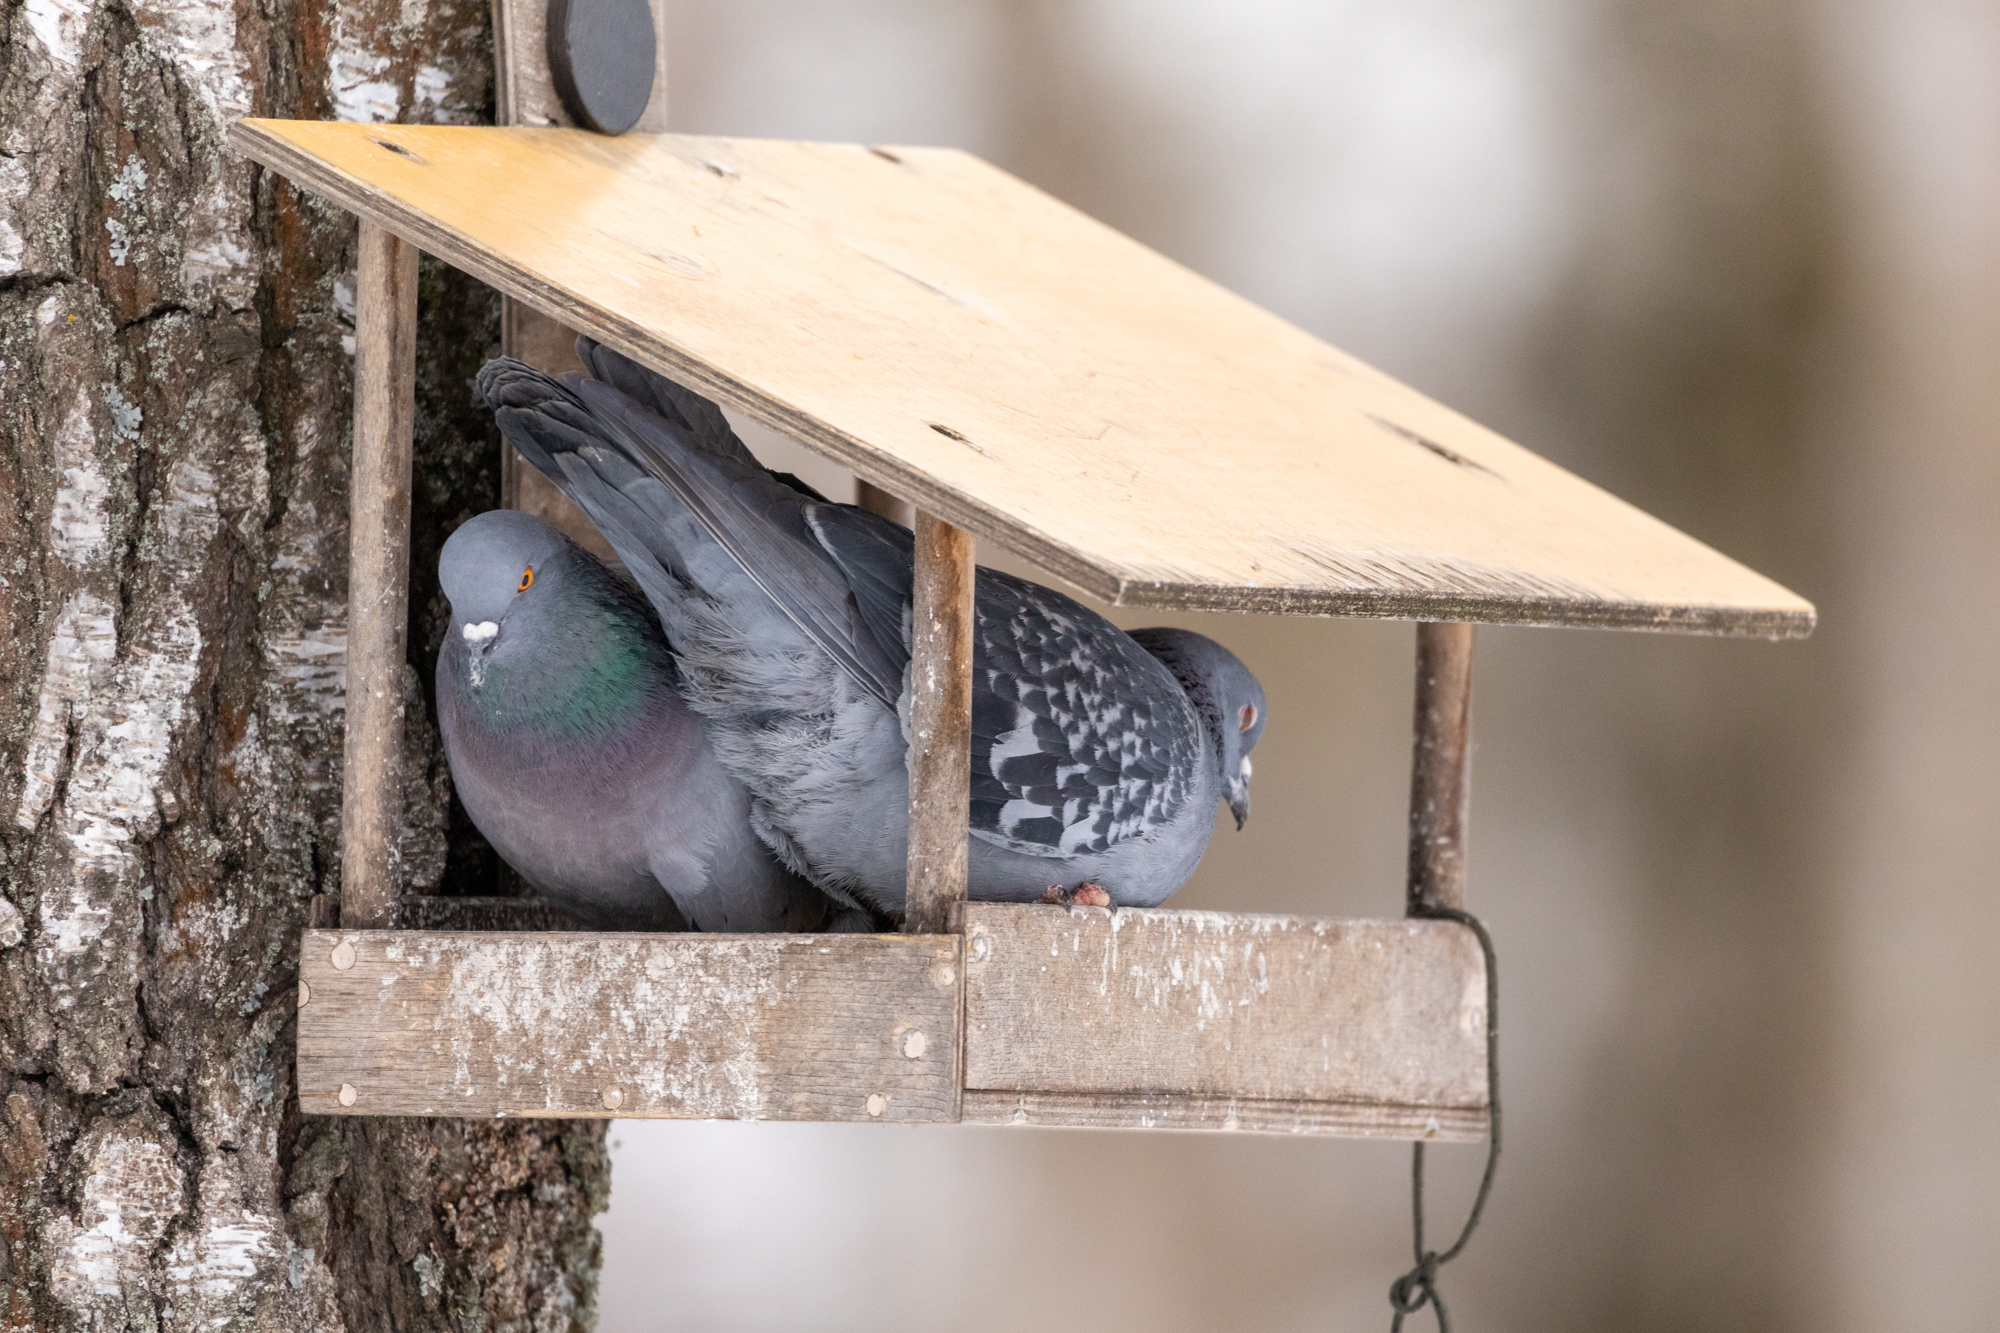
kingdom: Animalia
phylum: Chordata
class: Aves
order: Columbiformes
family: Columbidae
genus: Columba
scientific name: Columba livia
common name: Rock pigeon
